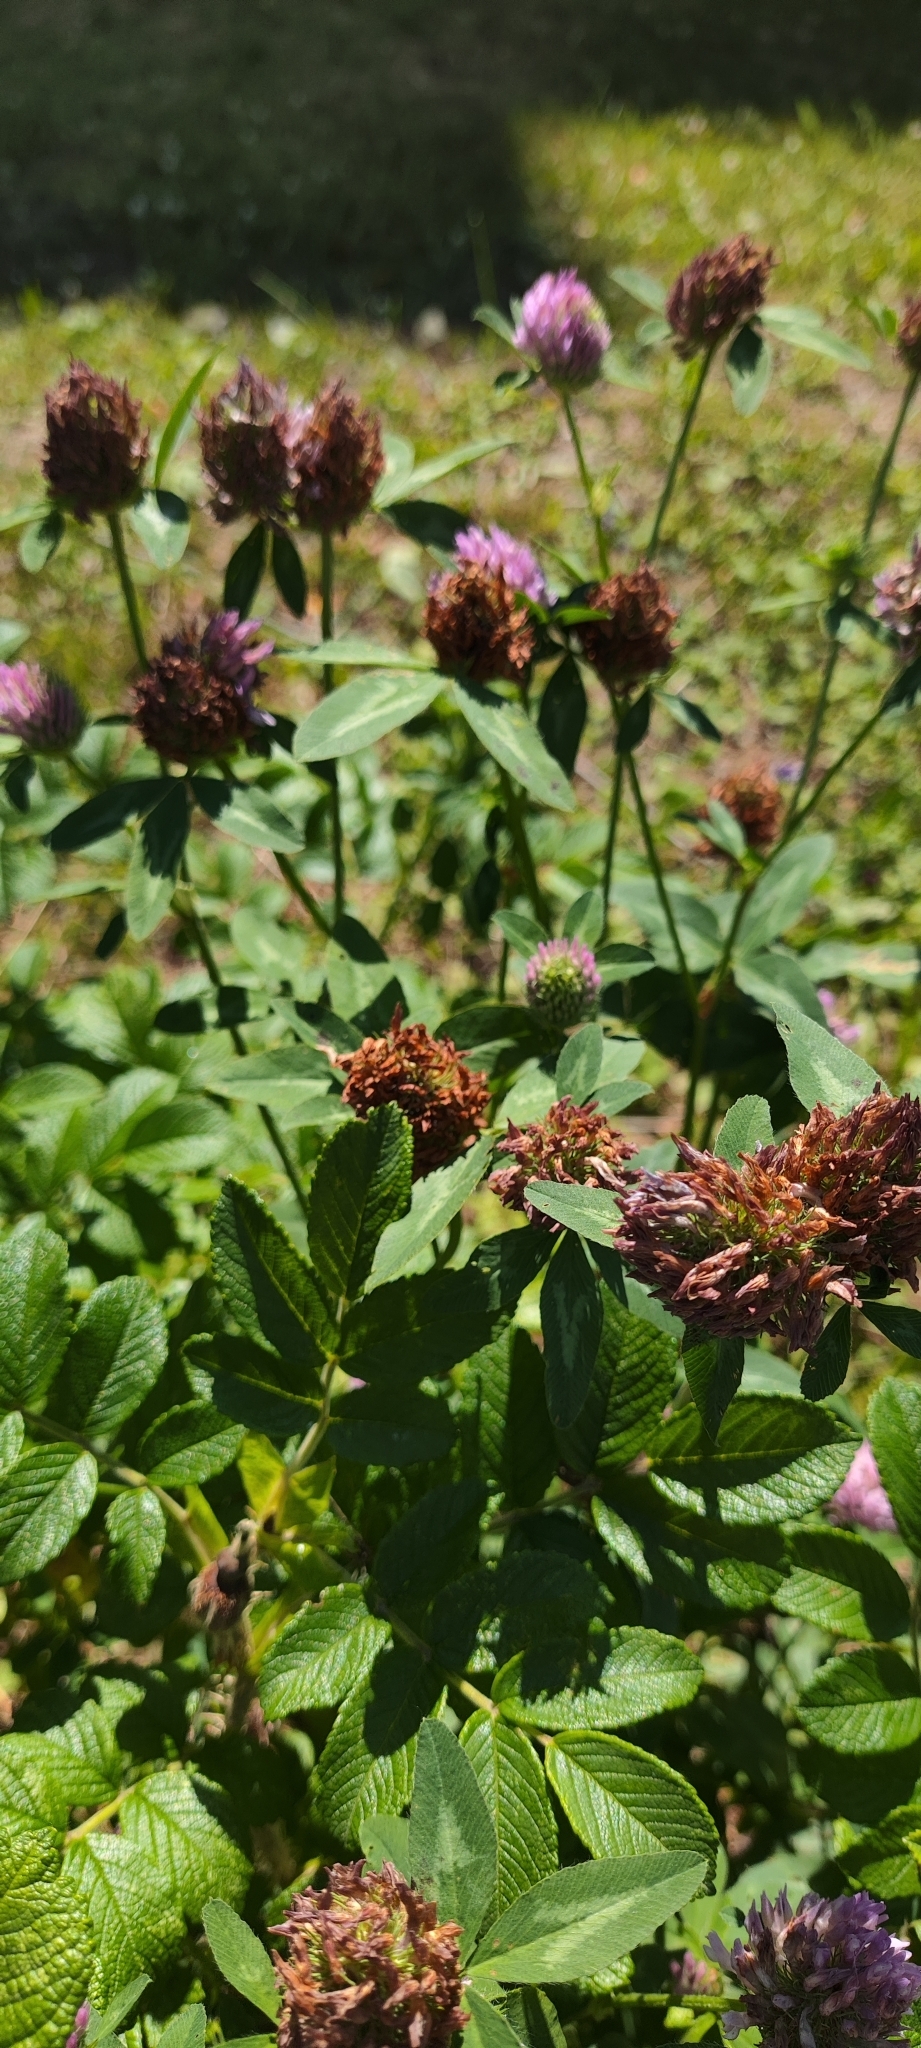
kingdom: Plantae
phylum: Tracheophyta
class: Magnoliopsida
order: Fabales
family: Fabaceae
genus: Trifolium
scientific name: Trifolium pratense
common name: Red clover
